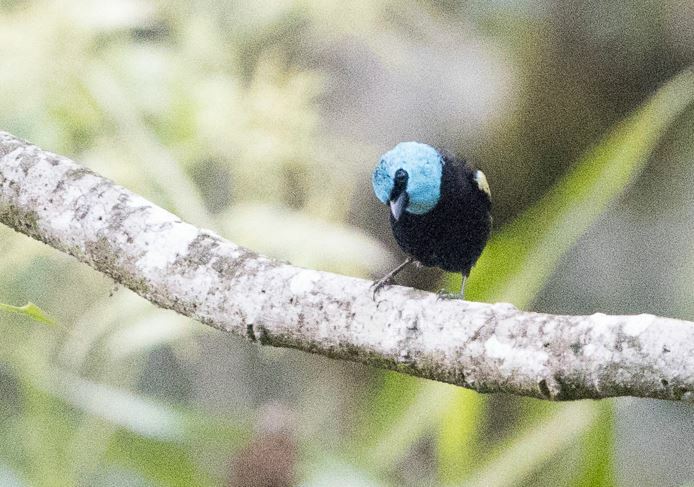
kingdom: Animalia
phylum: Chordata
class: Aves
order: Passeriformes
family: Thraupidae
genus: Stilpnia
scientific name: Stilpnia cyanicollis
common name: Blue-necked tanager
